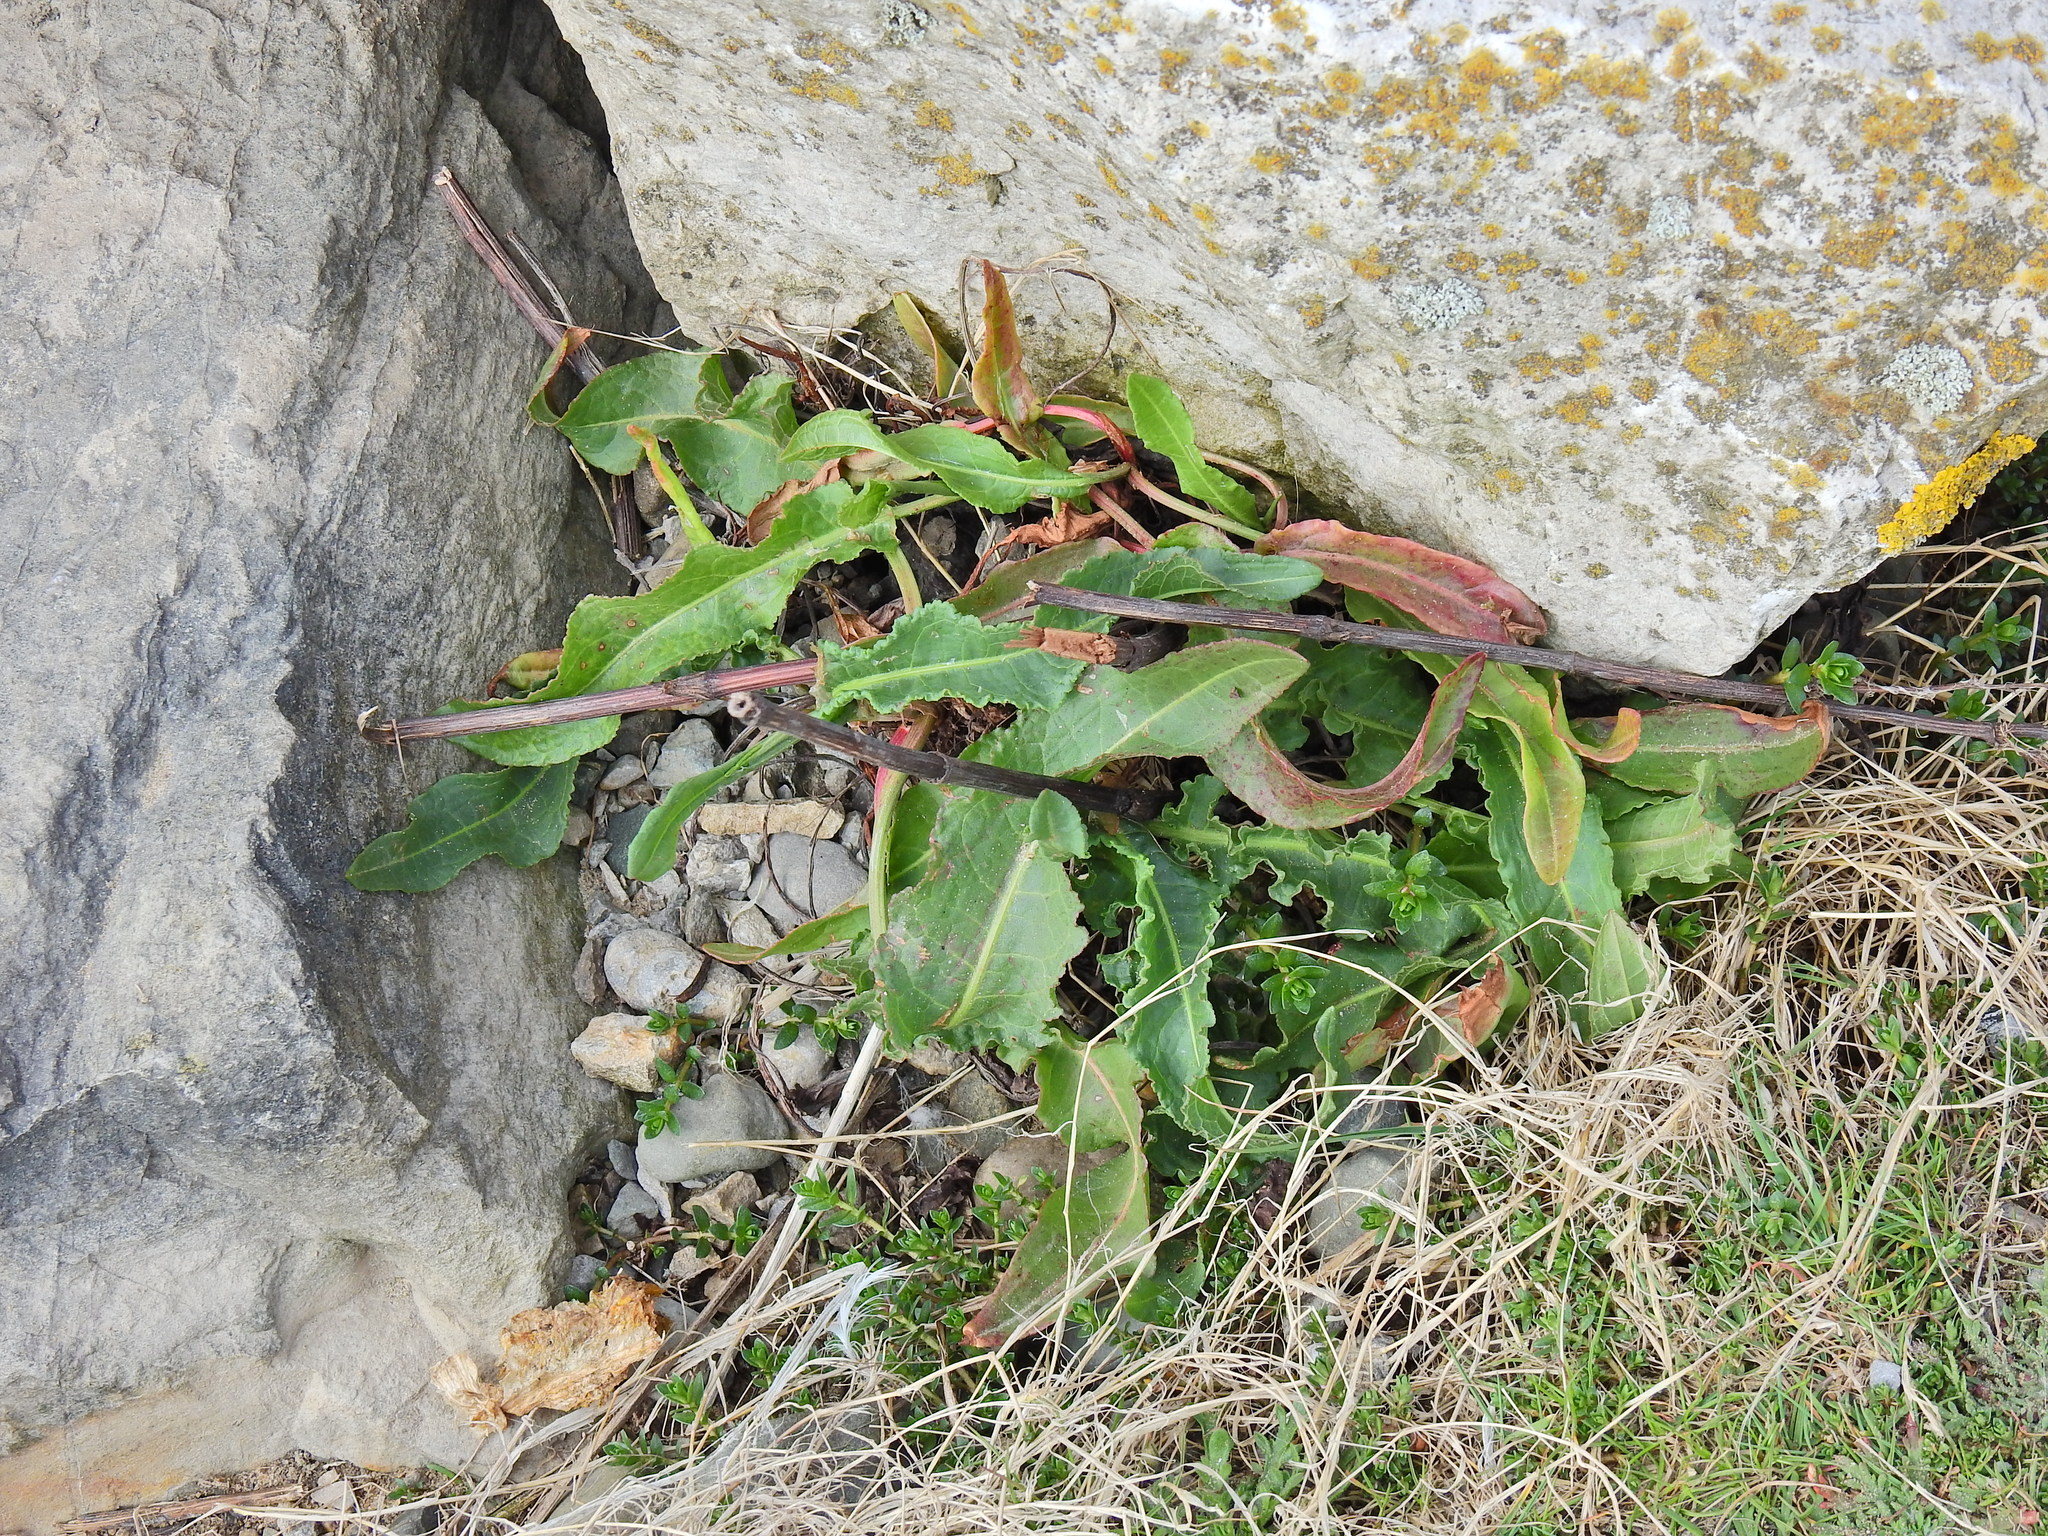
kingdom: Plantae
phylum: Tracheophyta
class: Magnoliopsida
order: Caryophyllales
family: Polygonaceae
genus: Rumex
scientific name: Rumex crispus
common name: Curled dock
